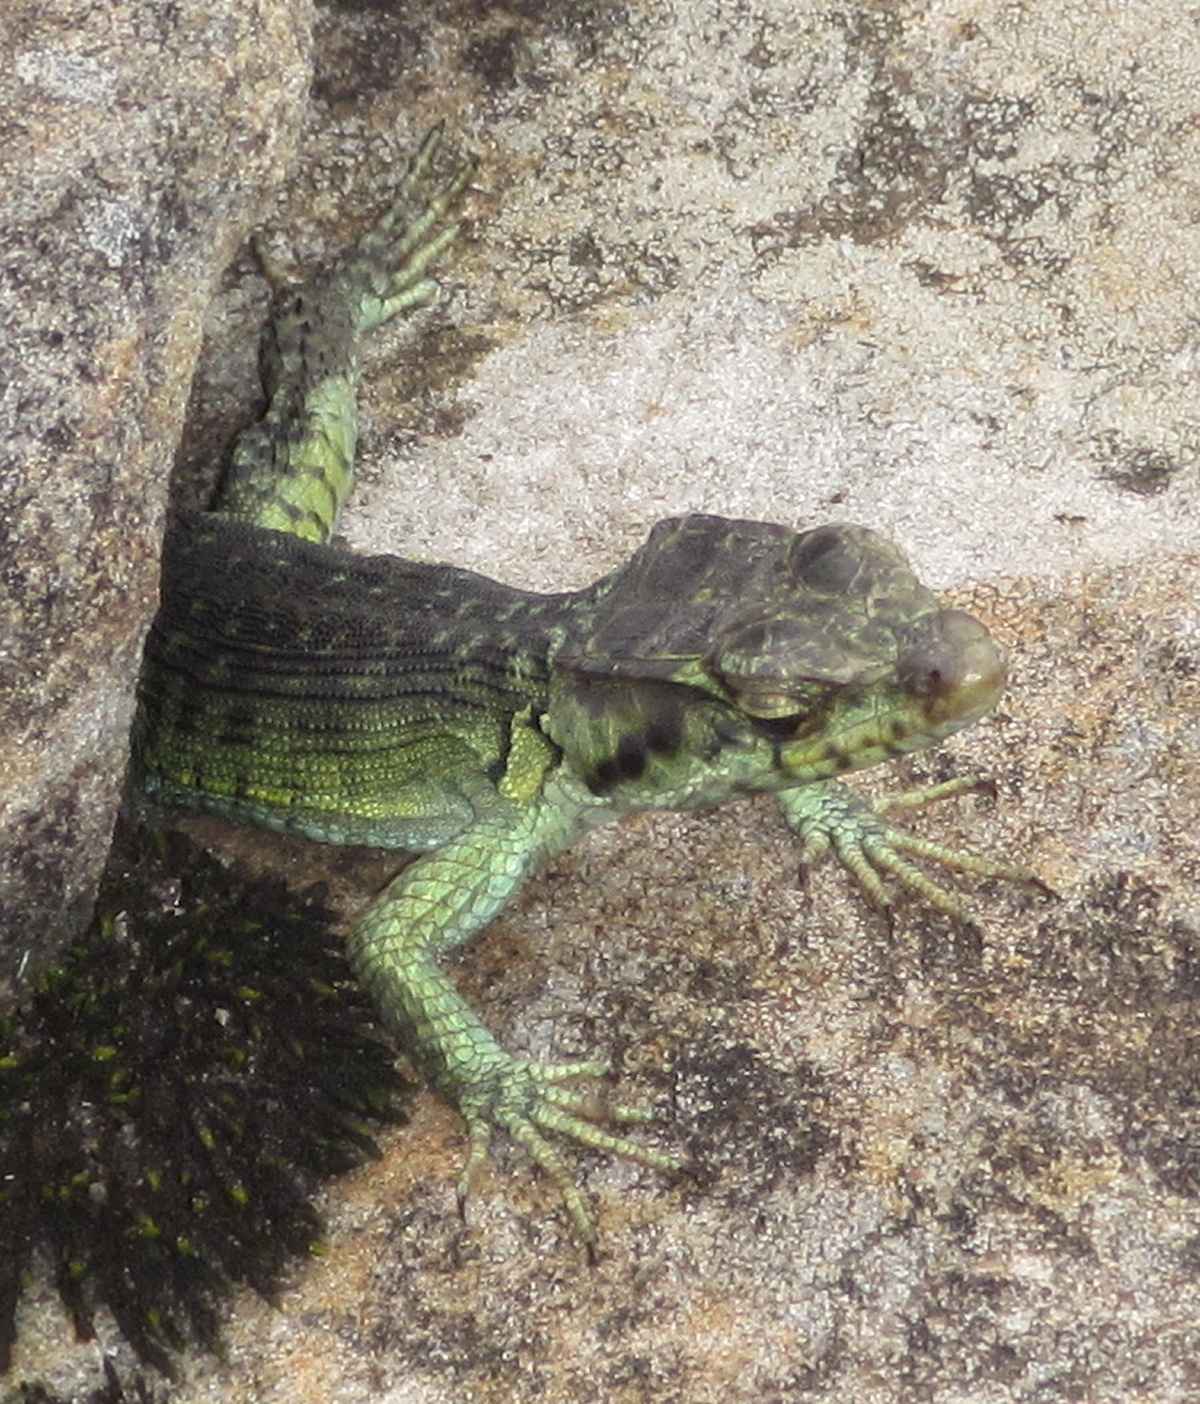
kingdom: Animalia
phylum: Chordata
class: Squamata
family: Cordylidae
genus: Pseudocordylus
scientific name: Pseudocordylus subviridis
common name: Drakensberg crag lizard
